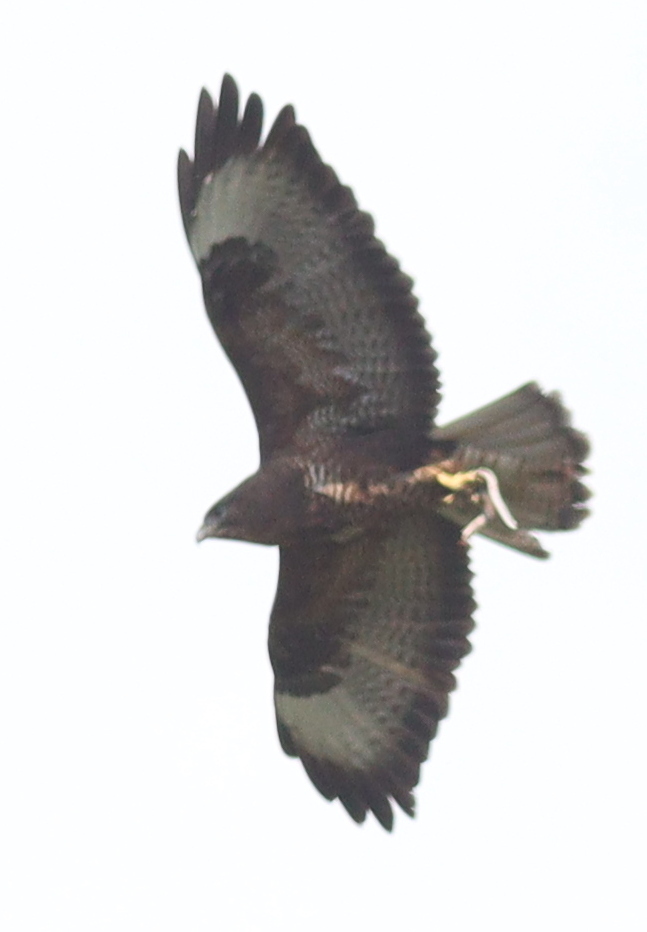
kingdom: Animalia
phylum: Chordata
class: Aves
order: Accipitriformes
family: Accipitridae
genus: Buteo
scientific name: Buteo buteo
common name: Common buzzard
